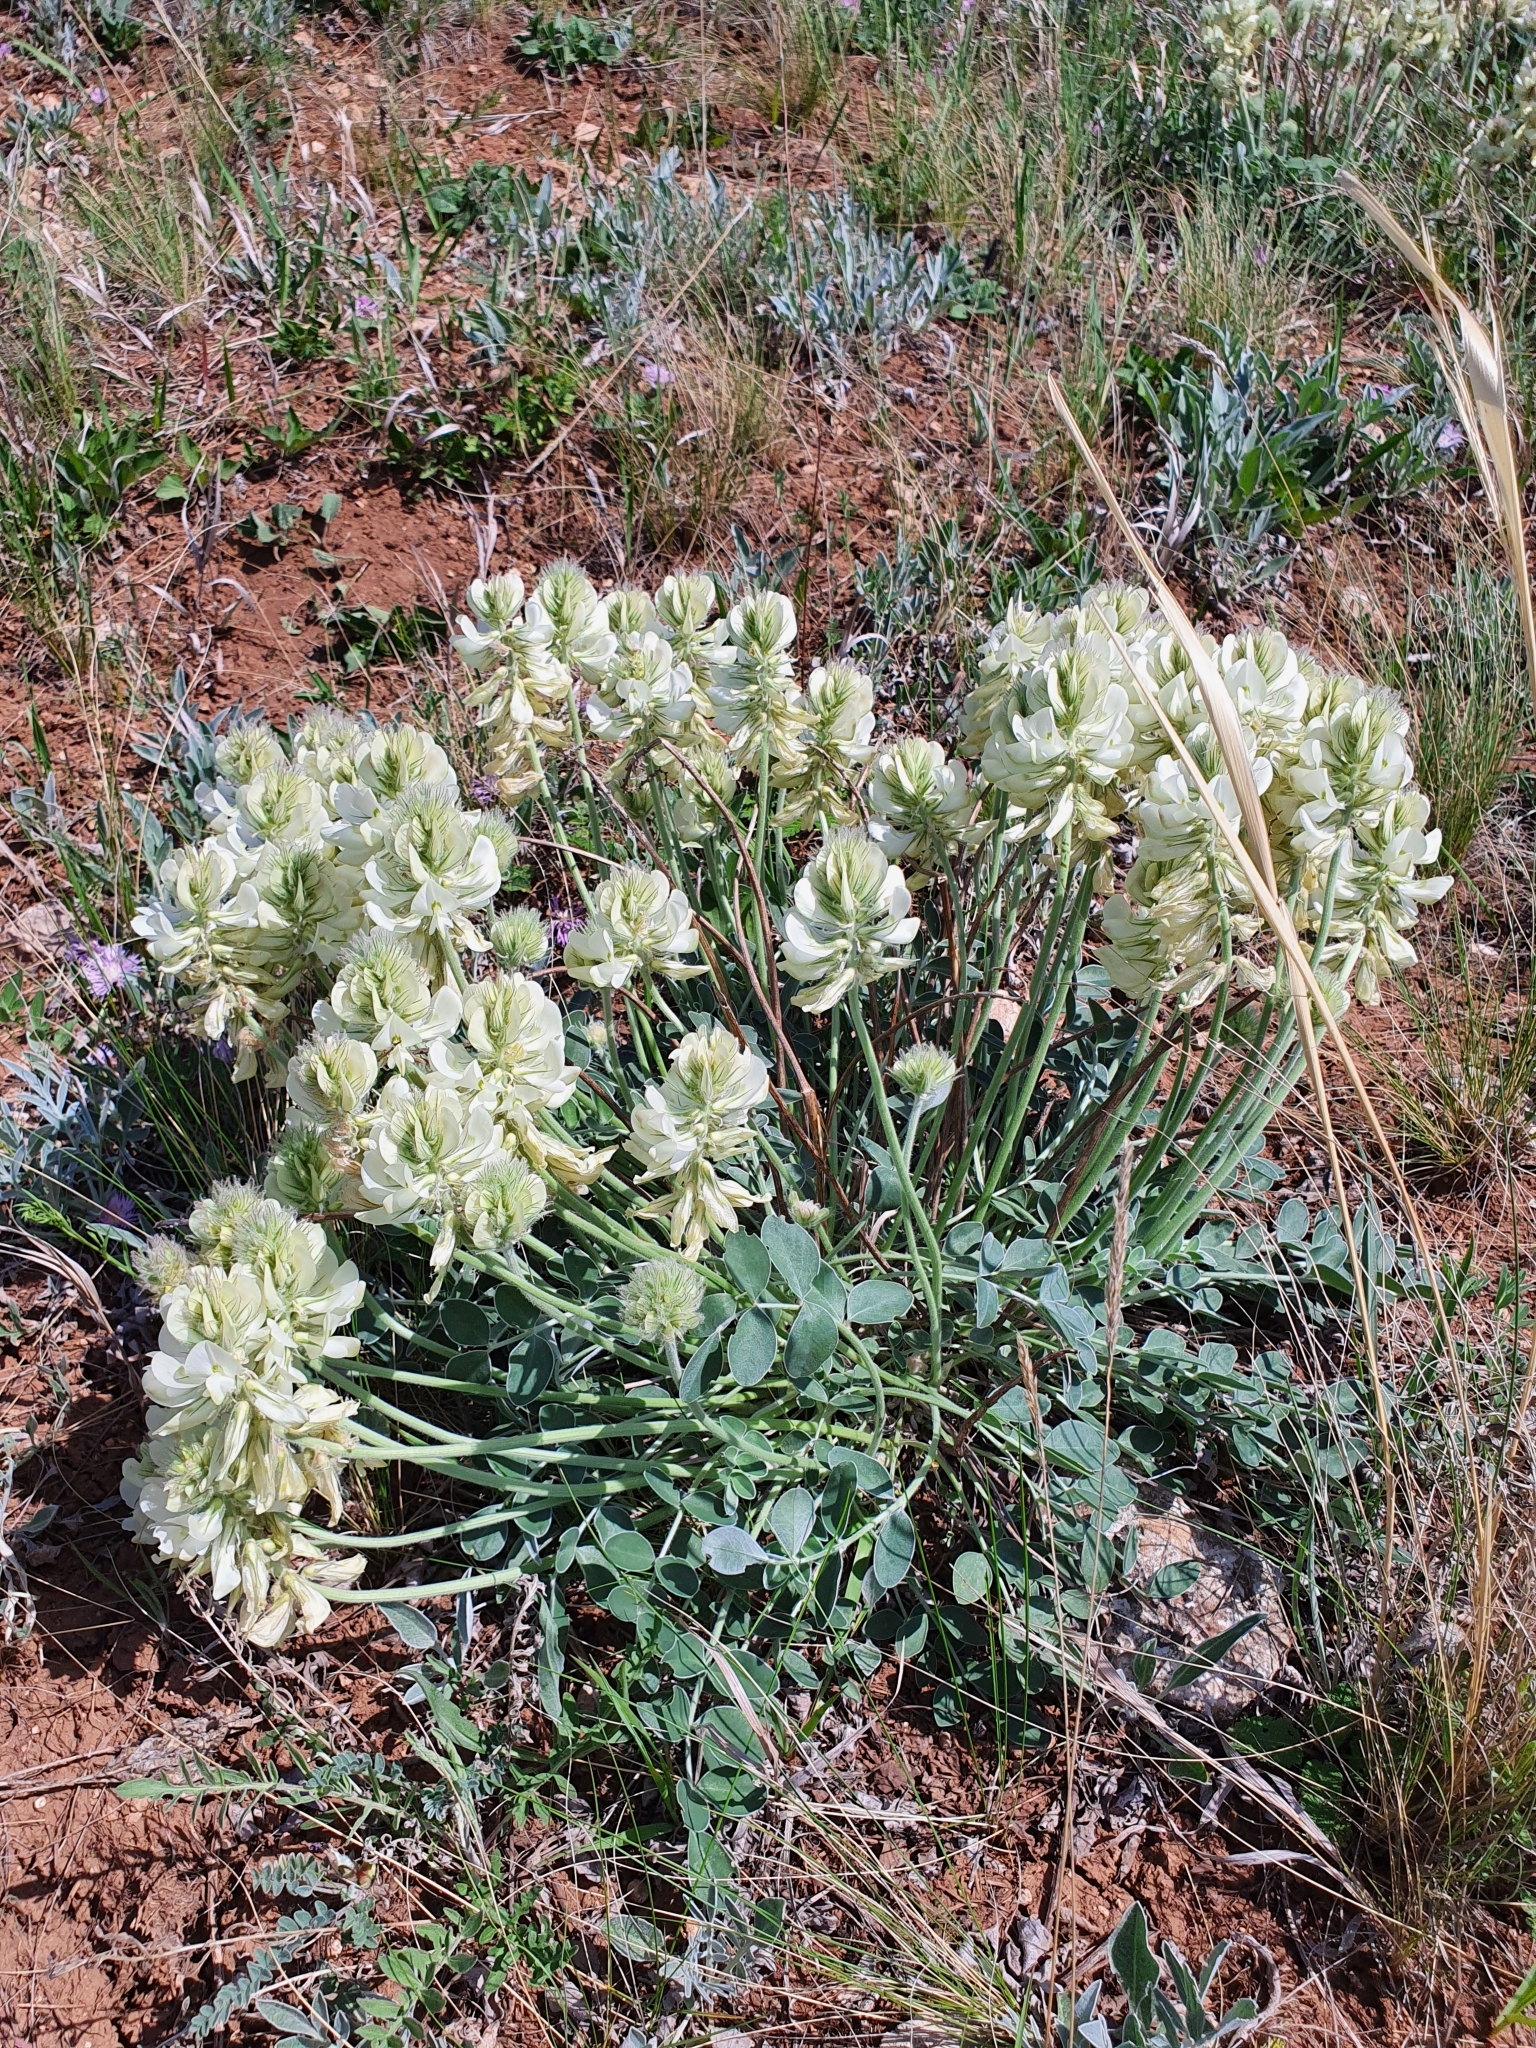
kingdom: Plantae
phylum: Tracheophyta
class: Magnoliopsida
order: Fabales
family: Fabaceae
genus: Hedysarum
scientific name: Hedysarum grandiflorum
